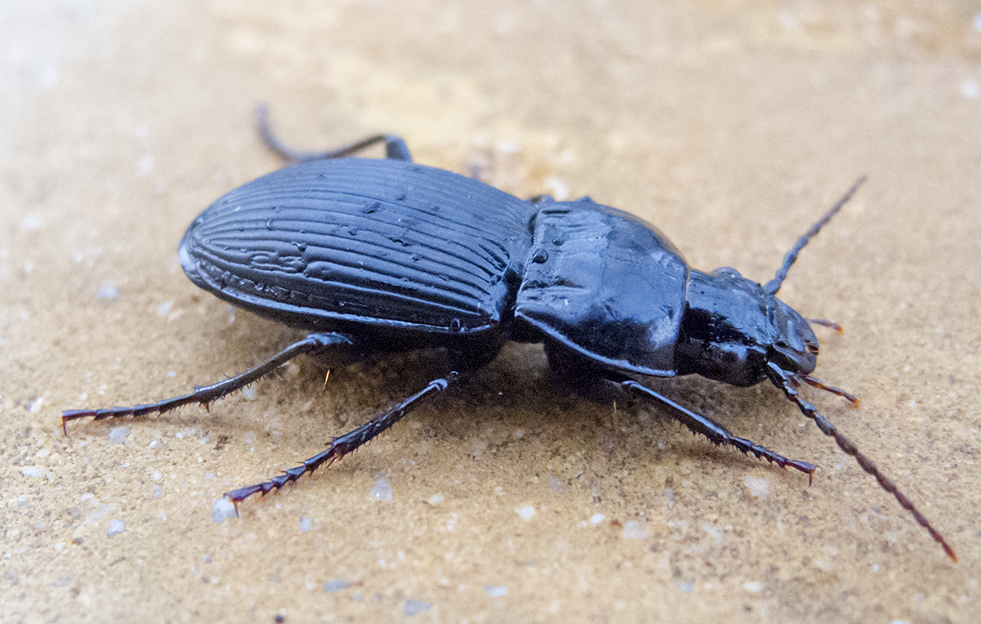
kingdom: Animalia
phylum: Arthropoda
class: Insecta
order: Coleoptera
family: Carabidae
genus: Pterostichus
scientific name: Pterostichus melas
